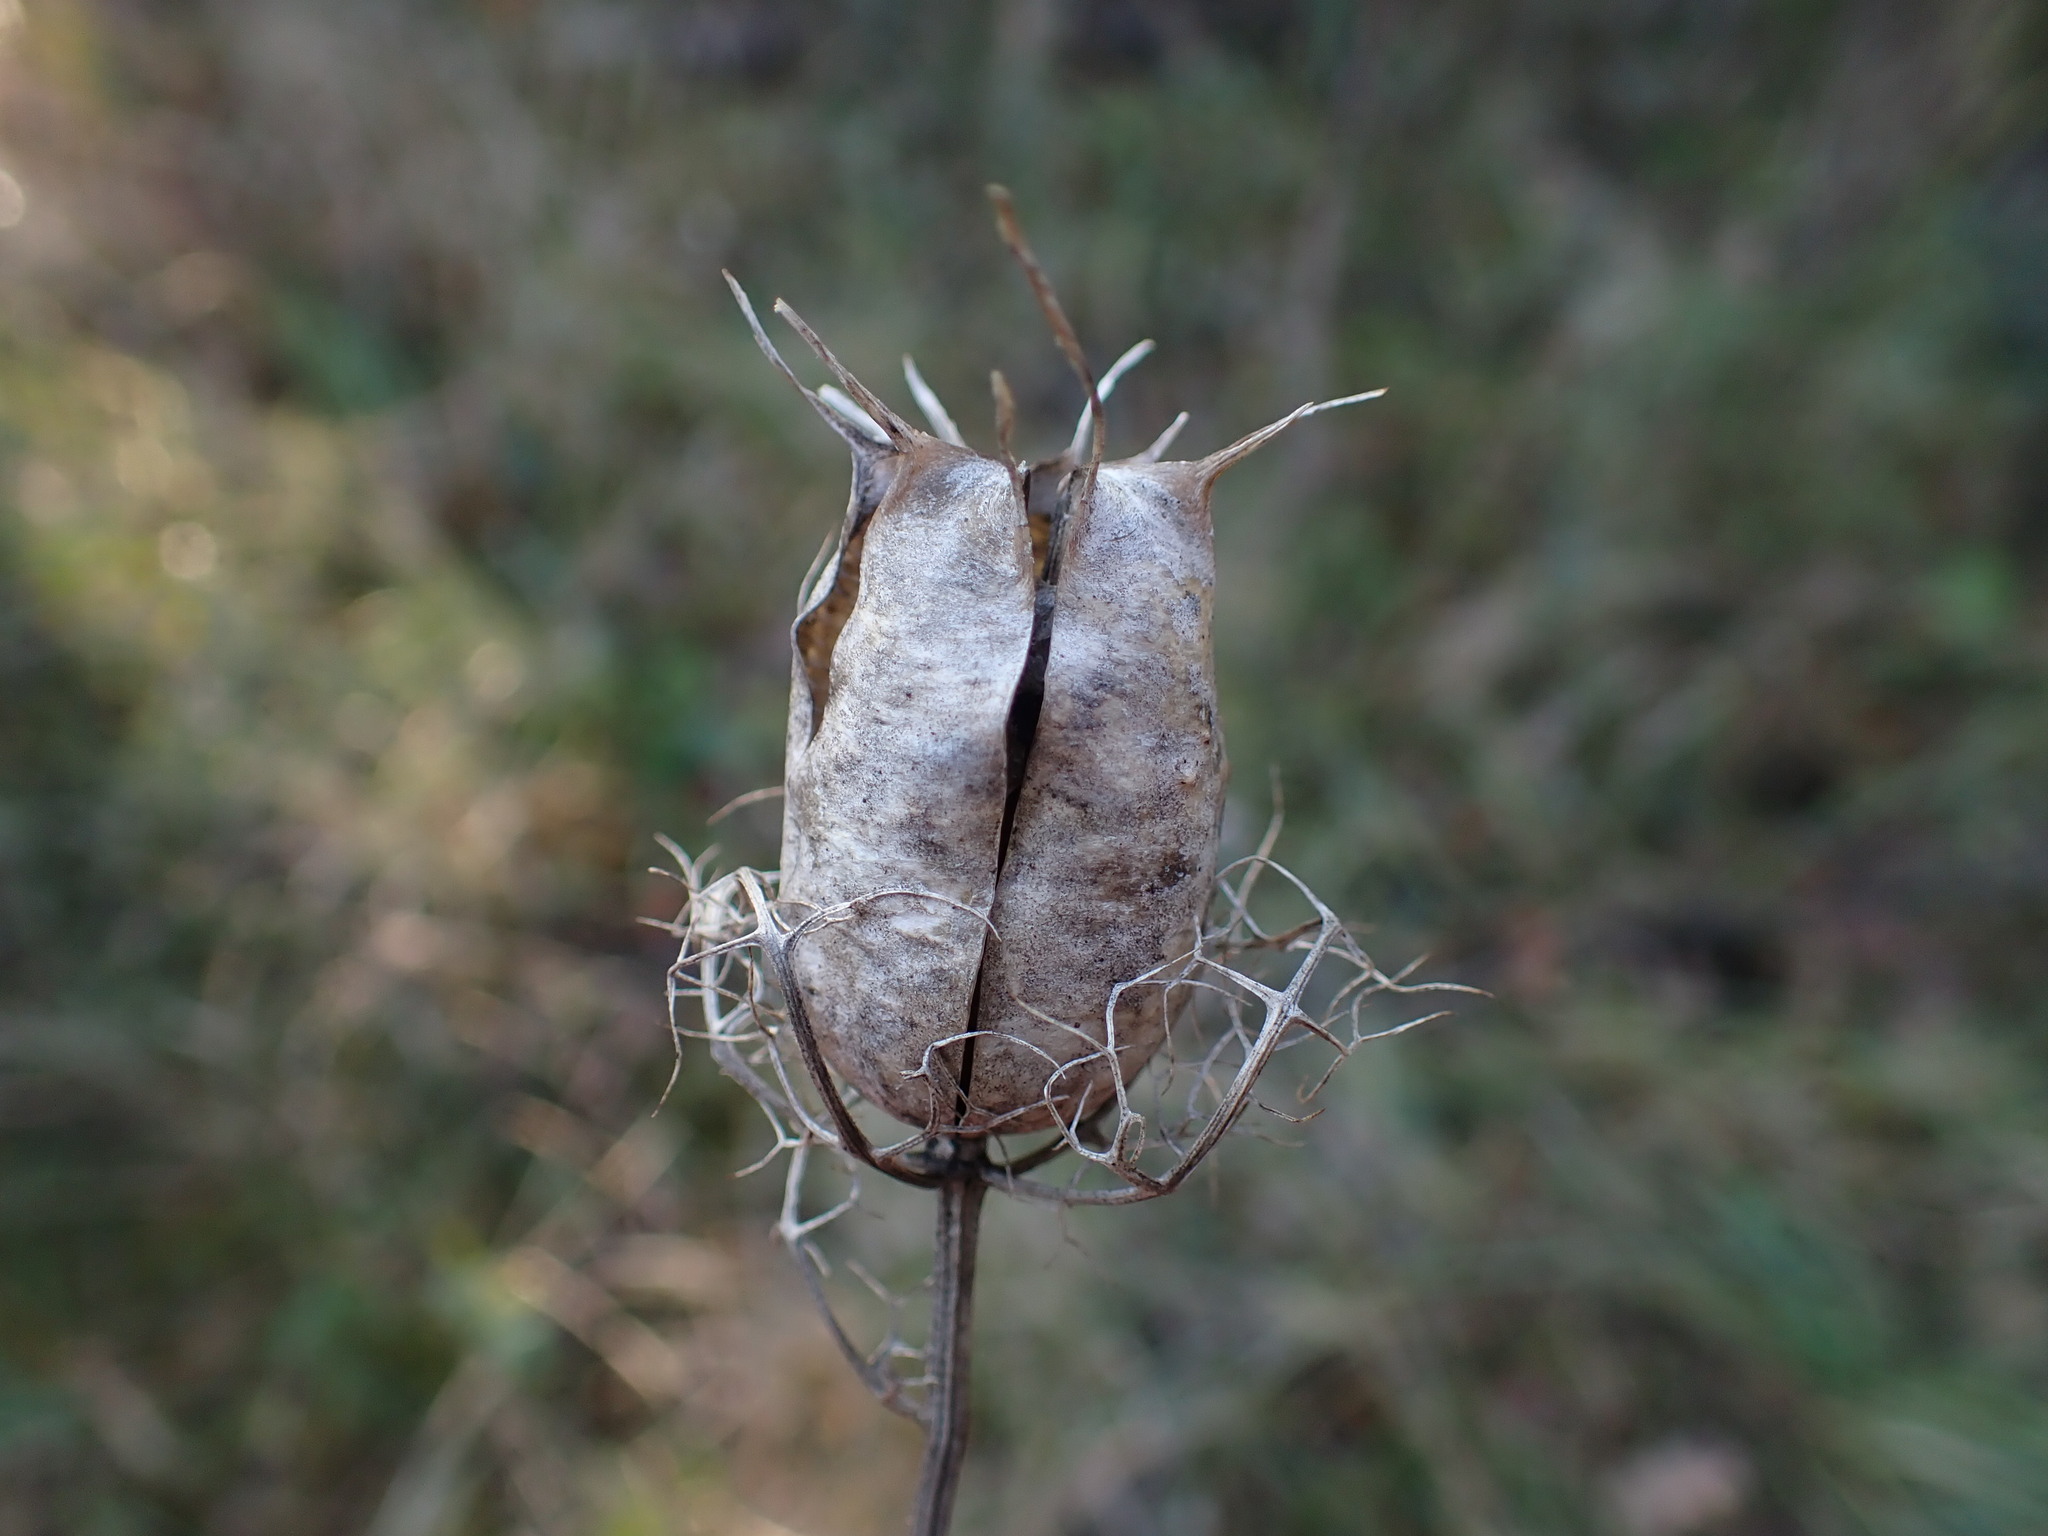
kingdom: Plantae
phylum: Tracheophyta
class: Magnoliopsida
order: Ranunculales
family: Ranunculaceae
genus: Nigella
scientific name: Nigella damascena
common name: Love-in-a-mist
